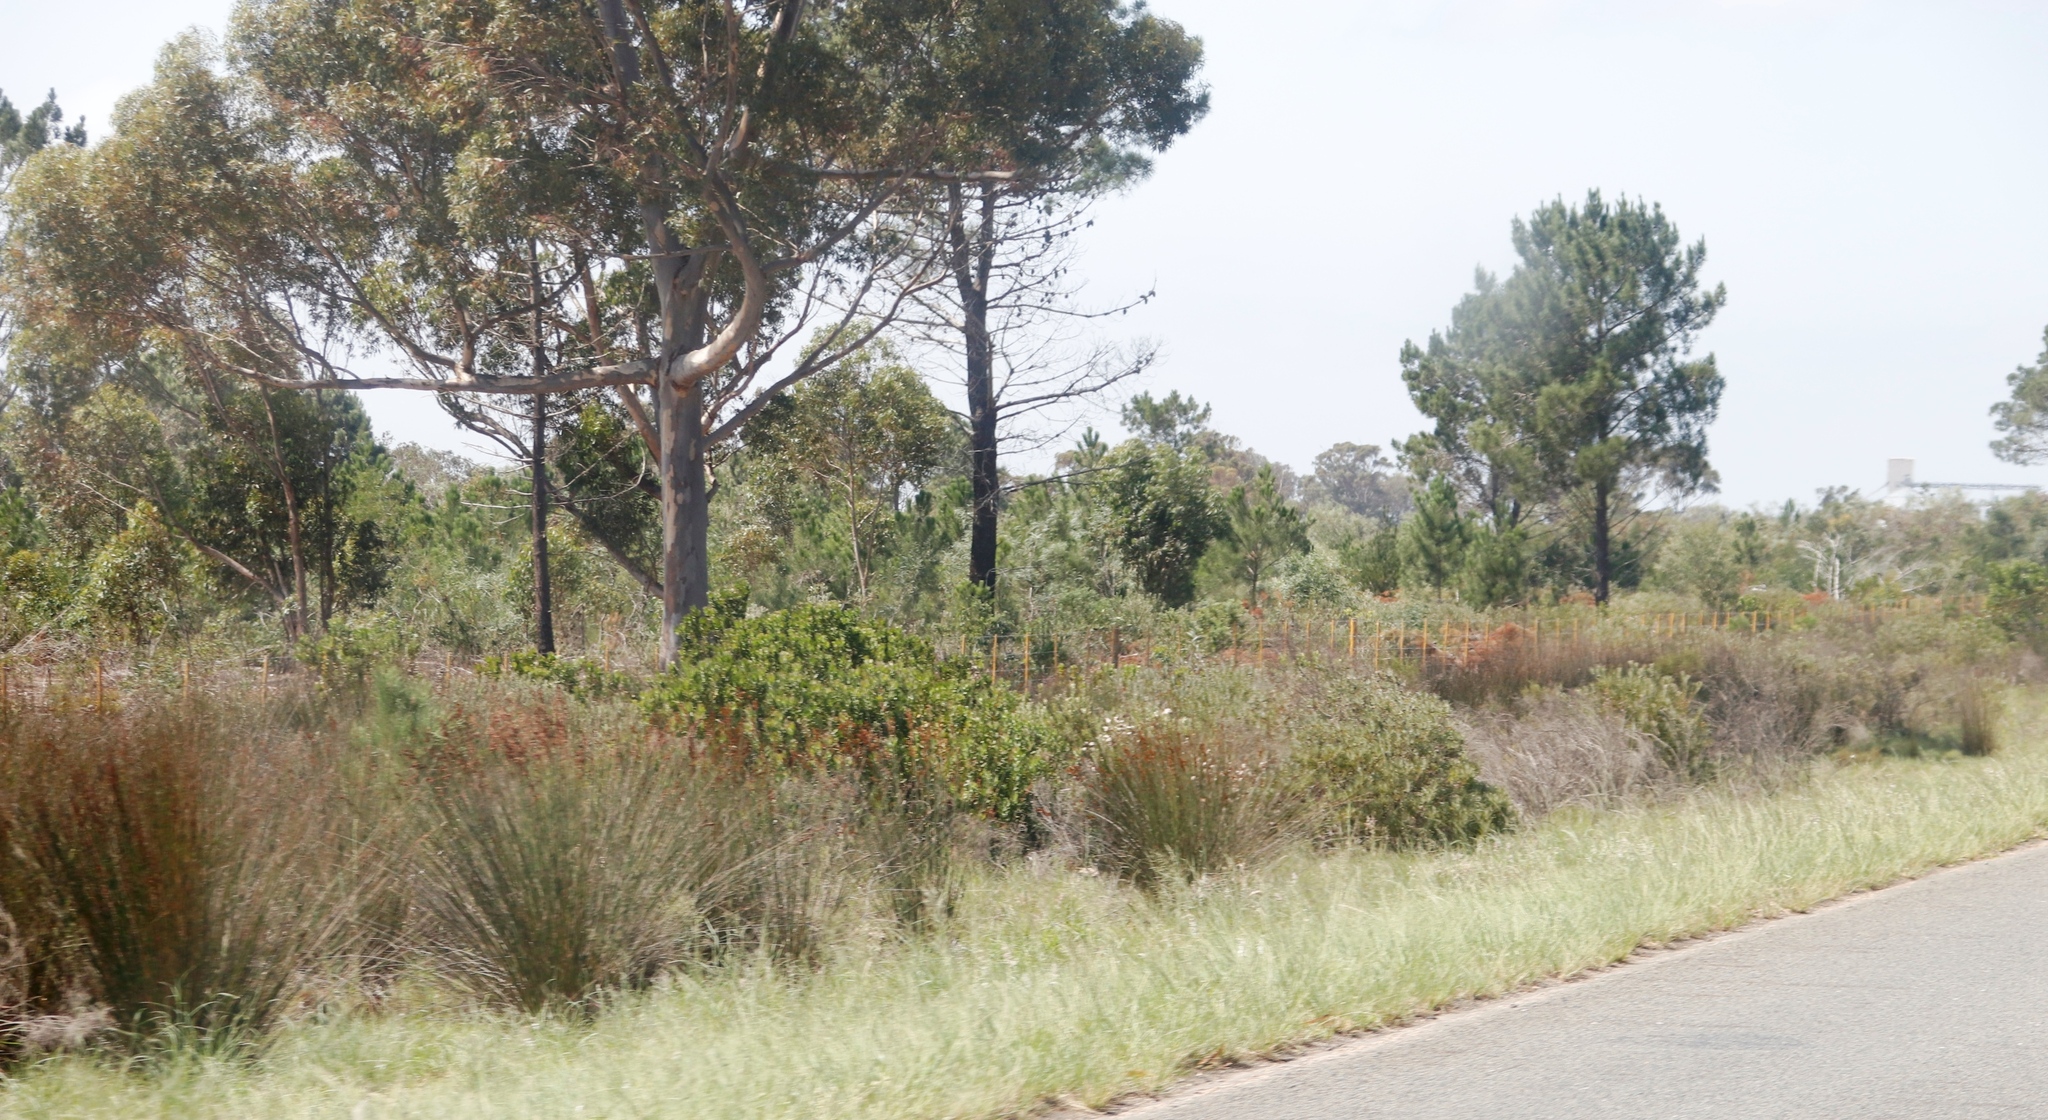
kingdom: Plantae
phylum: Tracheophyta
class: Liliopsida
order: Poales
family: Restionaceae
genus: Thamnochortus
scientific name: Thamnochortus insignis
